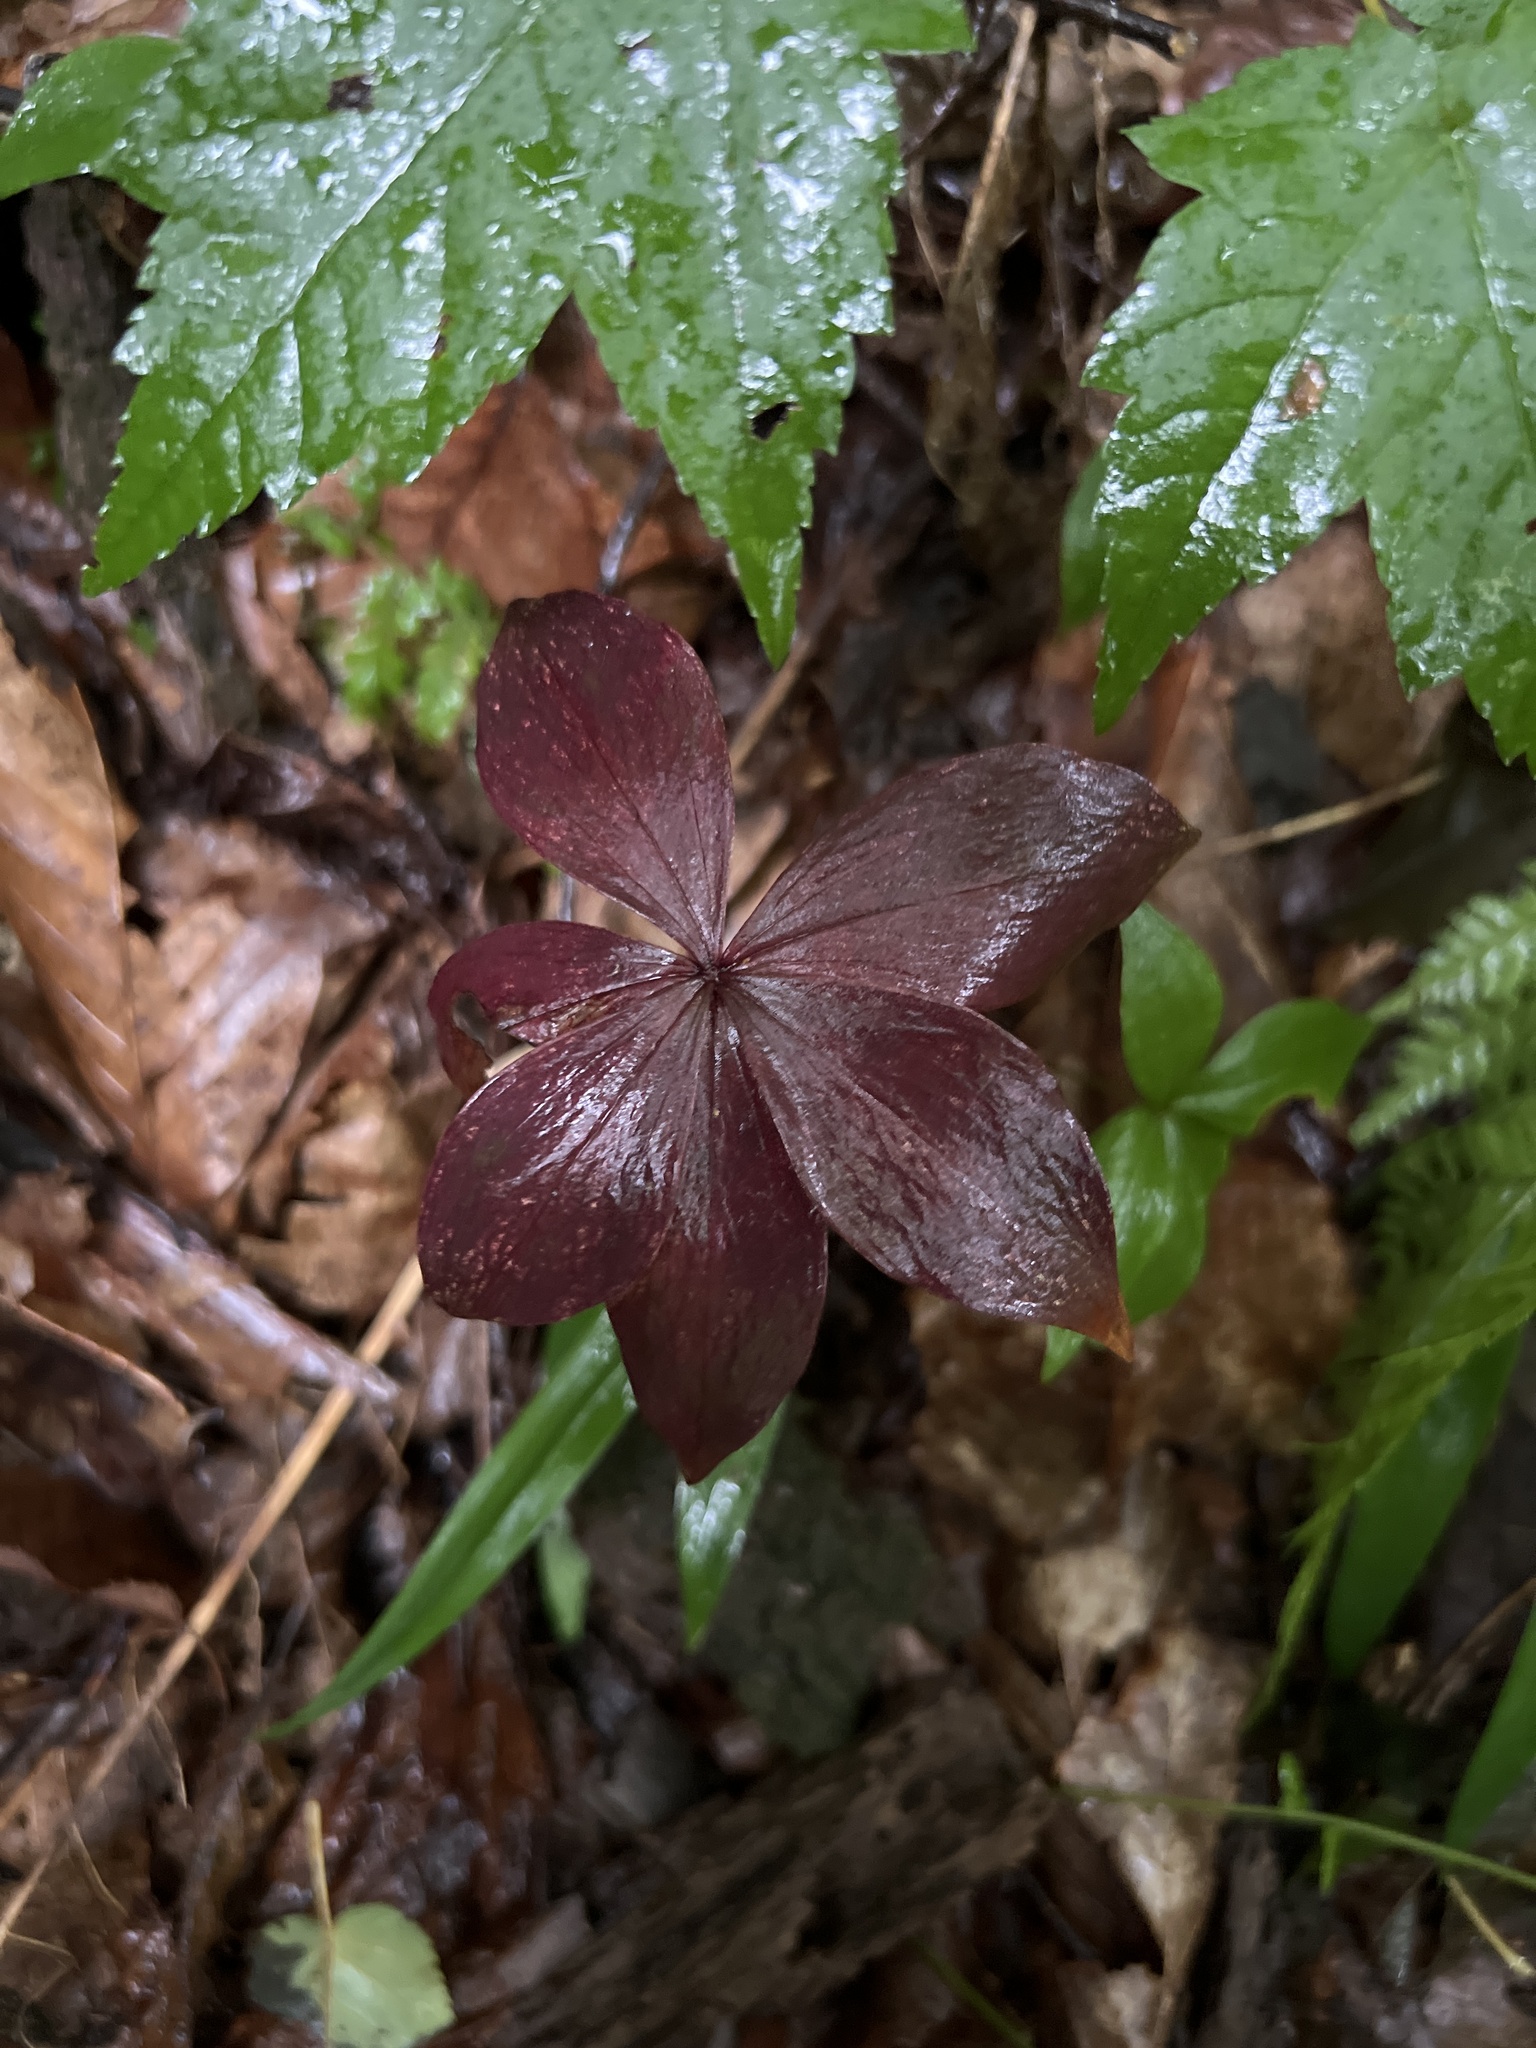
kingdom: Plantae
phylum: Tracheophyta
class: Liliopsida
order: Liliales
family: Liliaceae
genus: Medeola
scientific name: Medeola virginiana
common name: Indian cucumber-root
